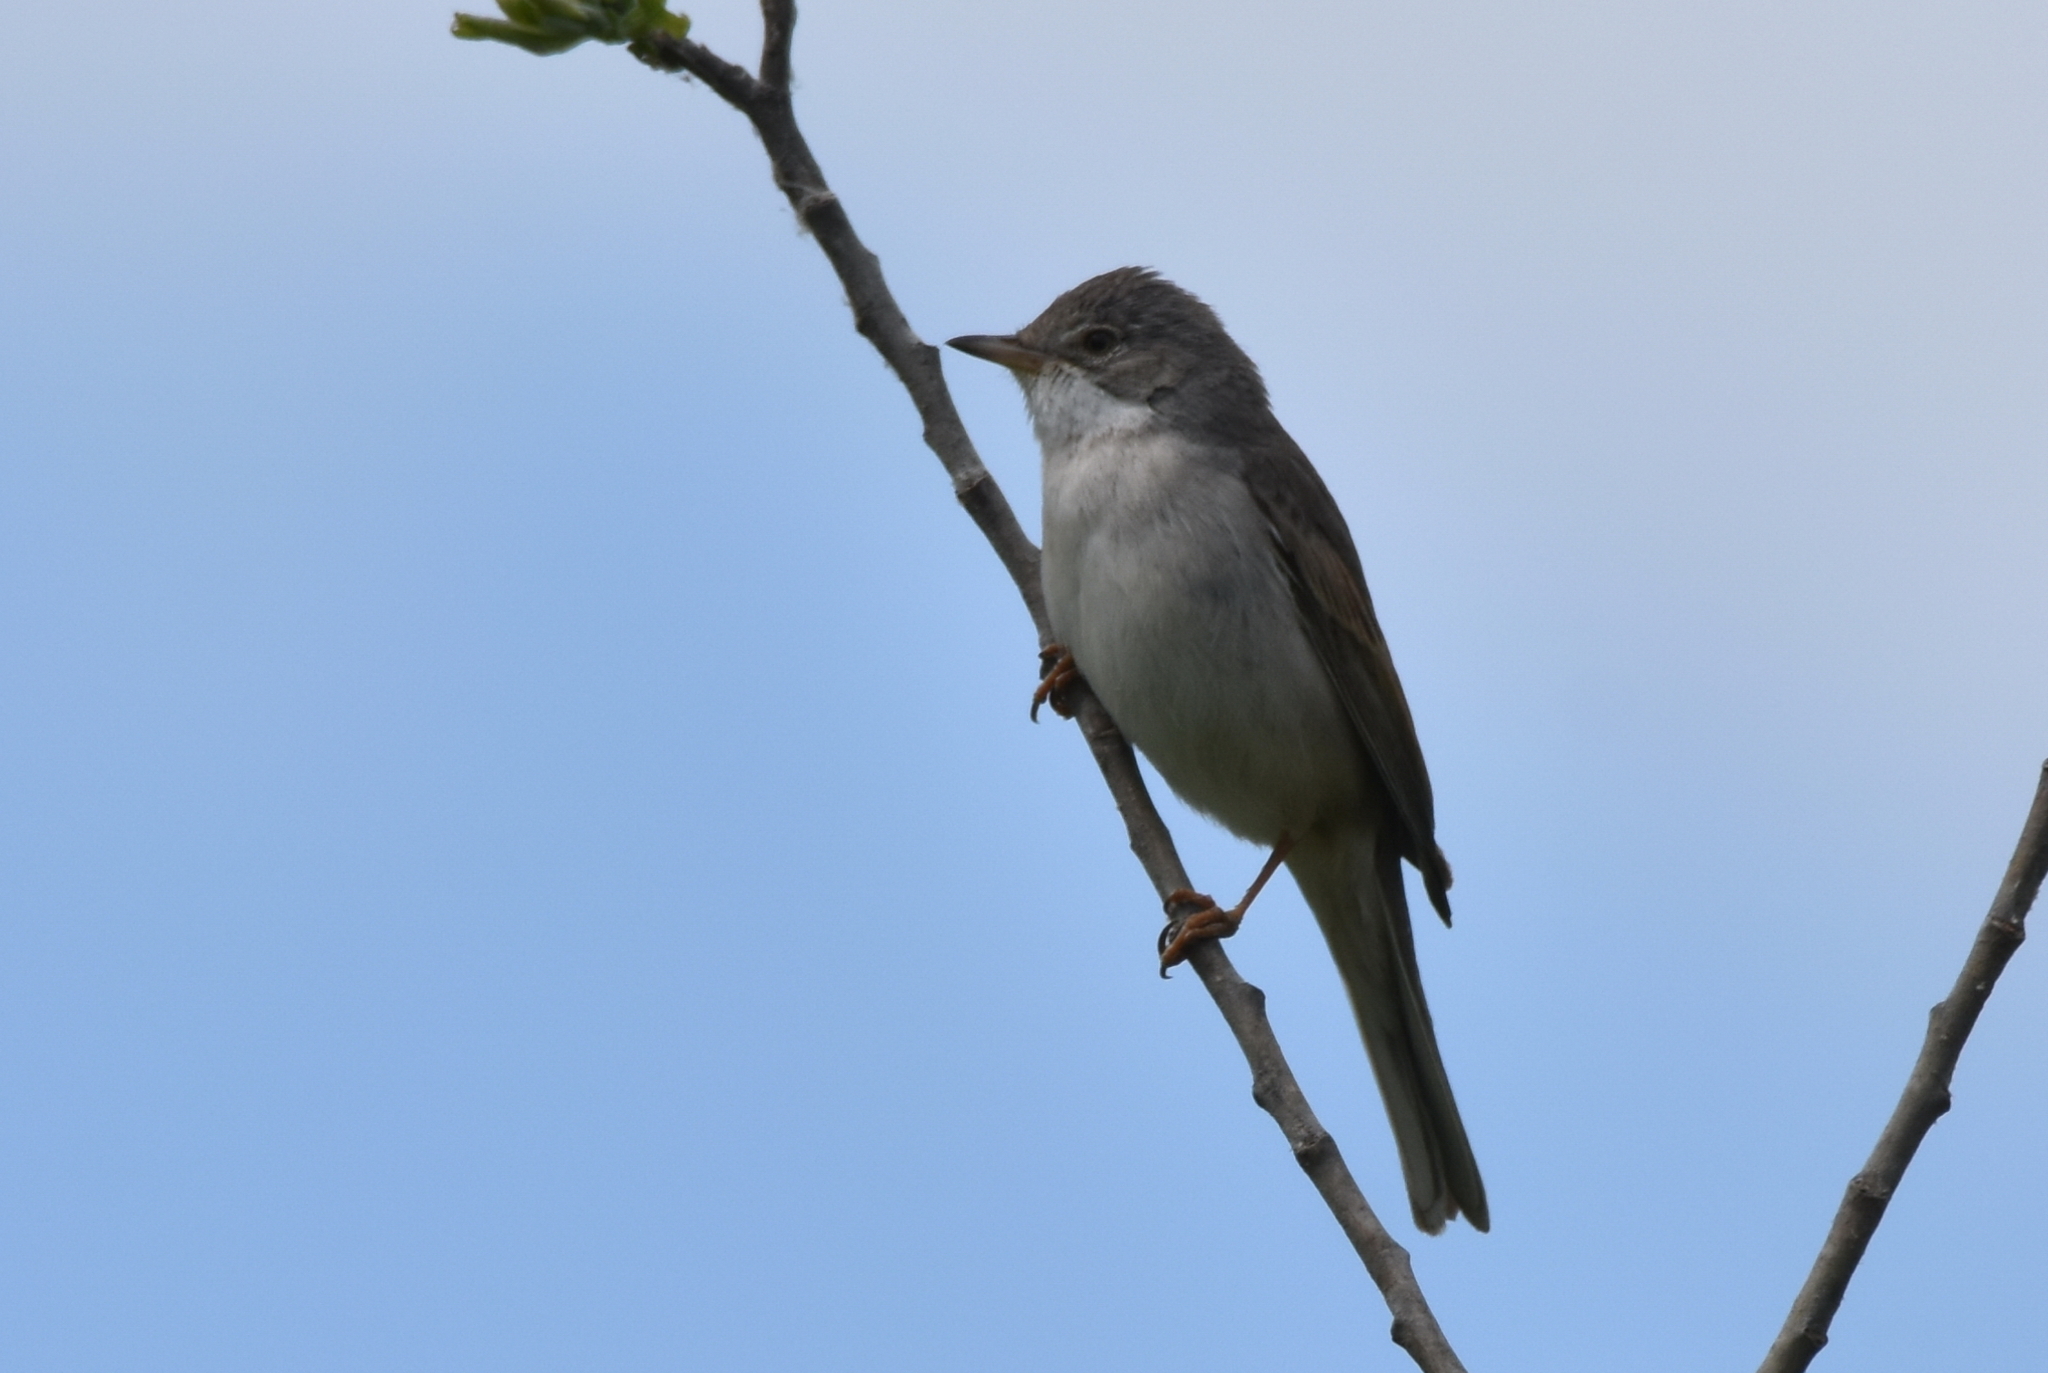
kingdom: Animalia
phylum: Chordata
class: Aves
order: Passeriformes
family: Sylviidae
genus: Sylvia
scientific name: Sylvia communis
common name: Common whitethroat
